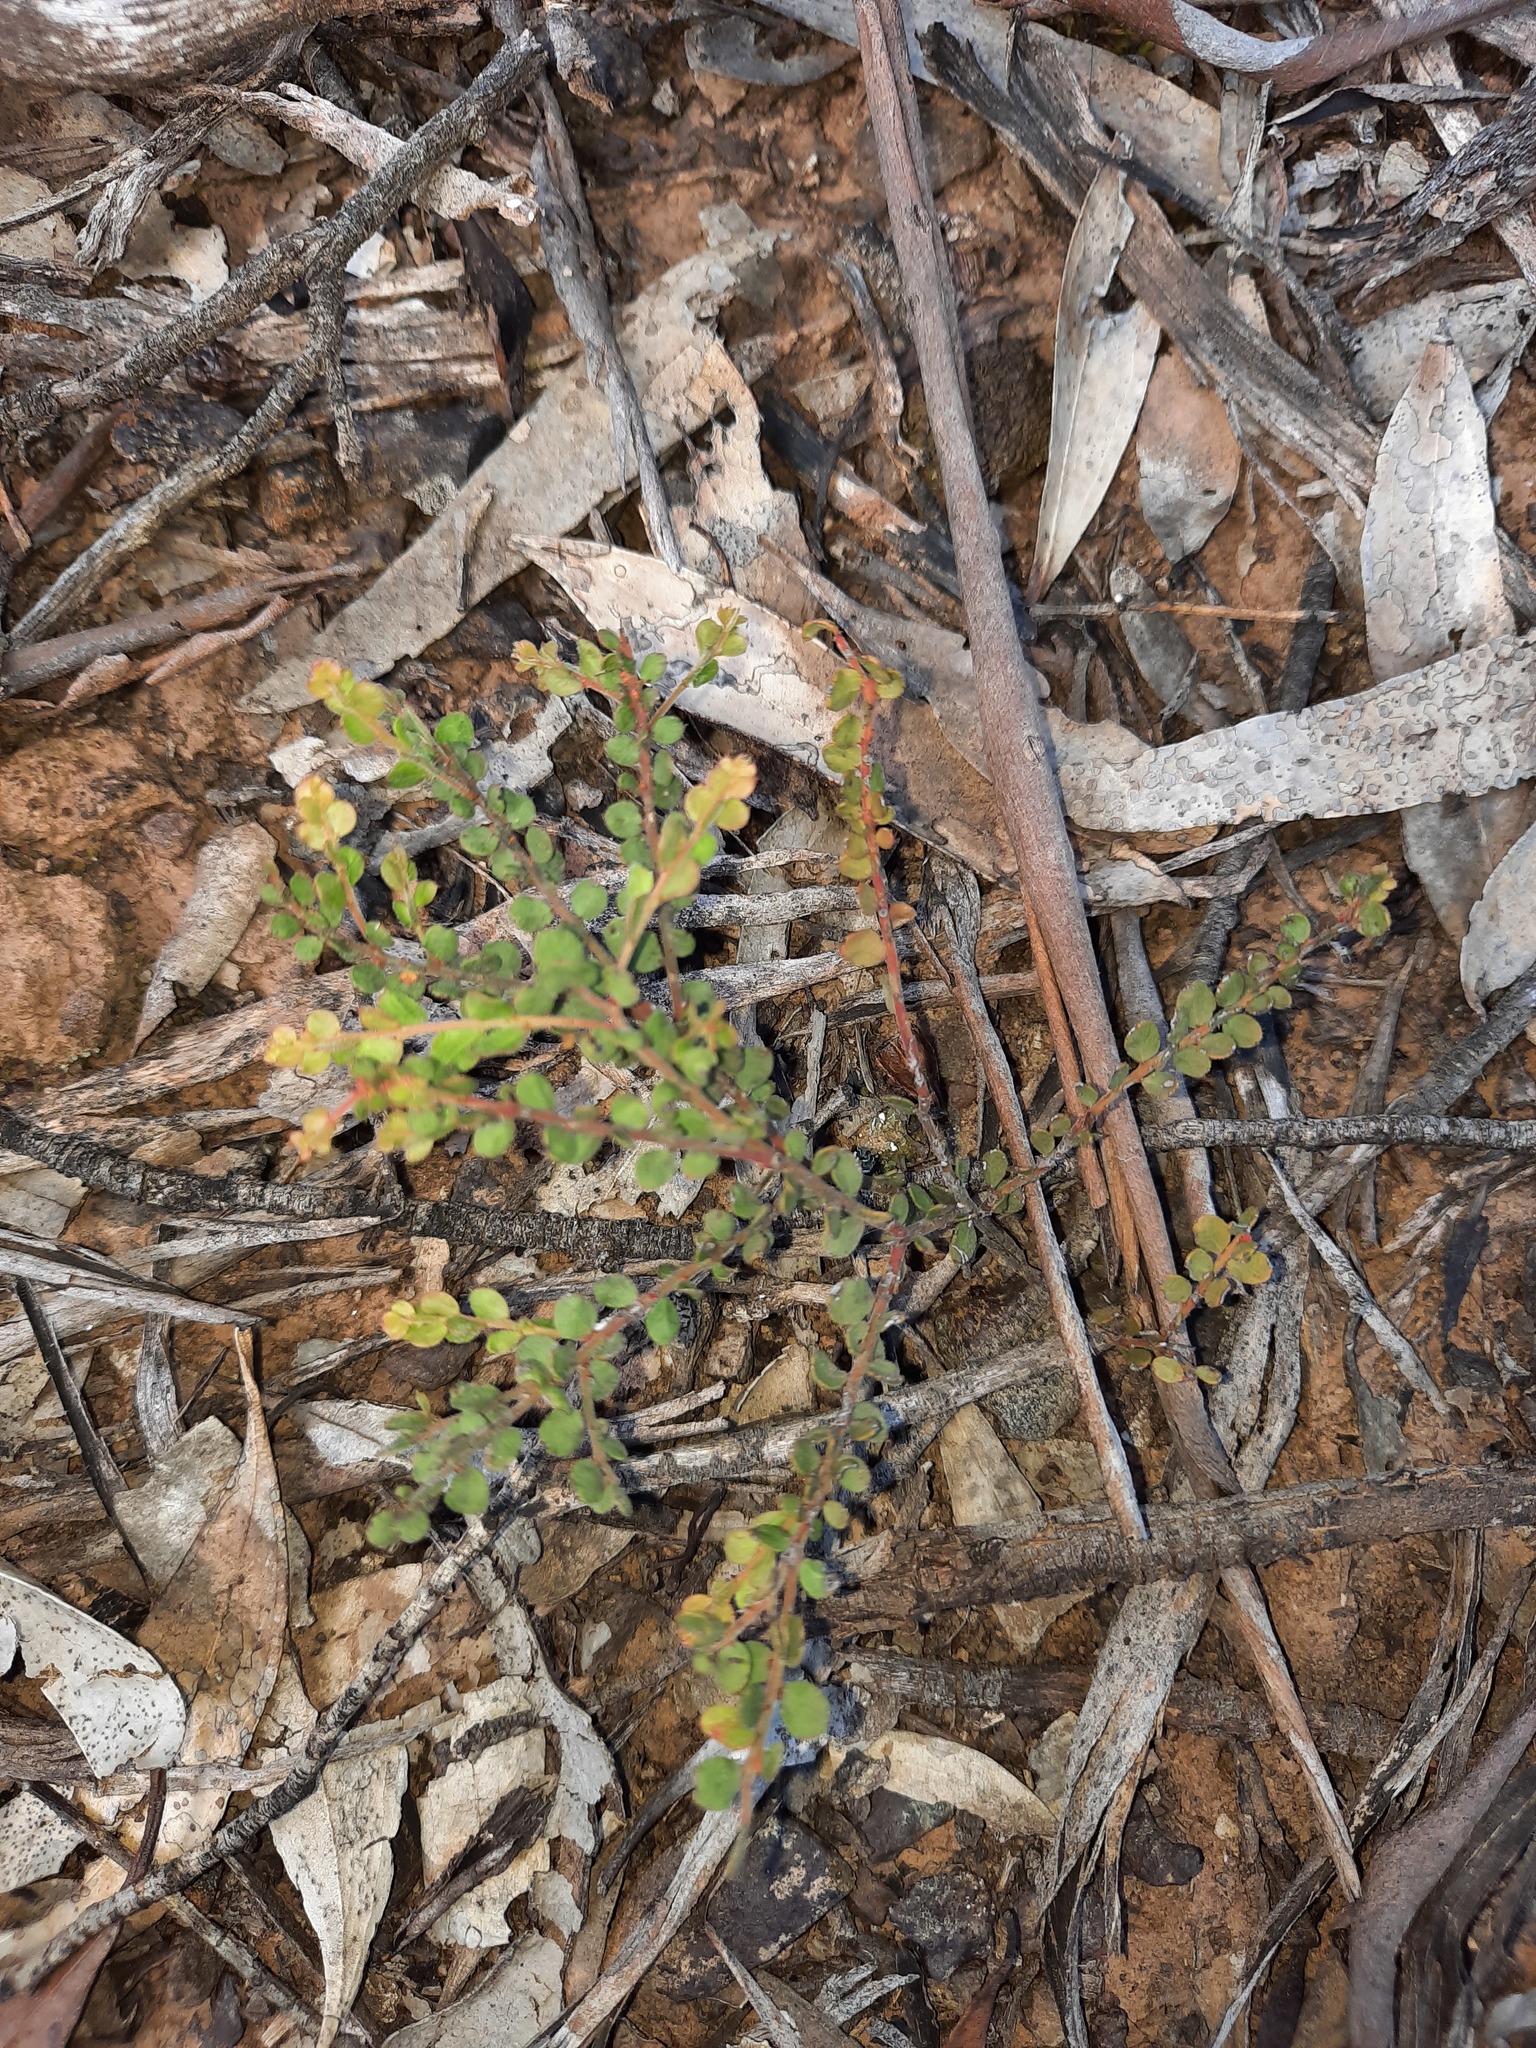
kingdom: Plantae
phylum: Tracheophyta
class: Magnoliopsida
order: Fabales
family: Fabaceae
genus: Acacia
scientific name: Acacia acinacea
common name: Gold-dust acacia
